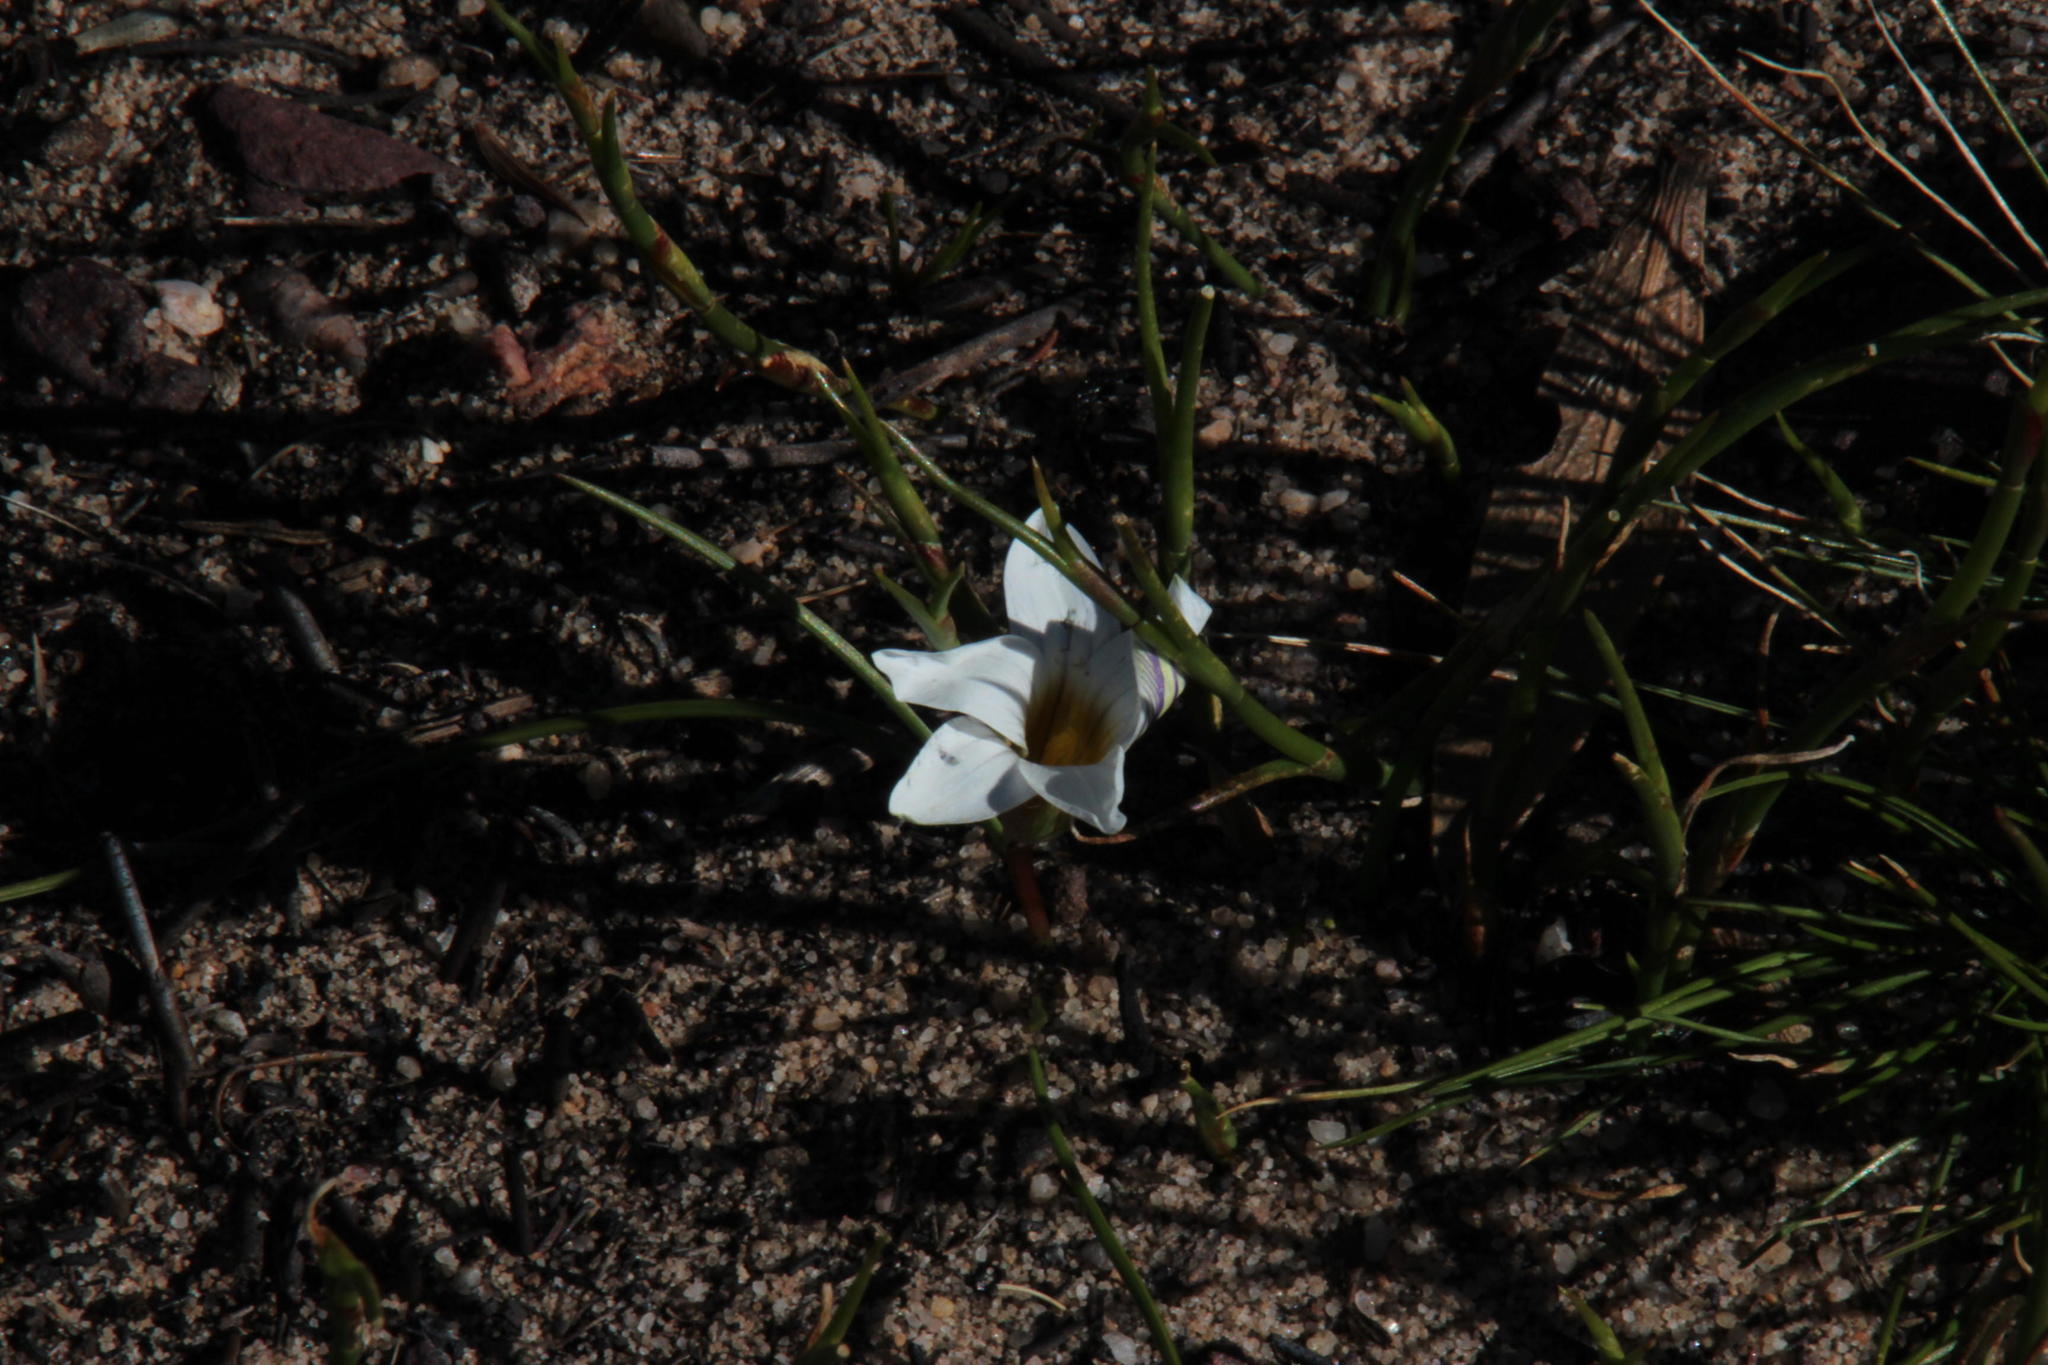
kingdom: Plantae
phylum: Tracheophyta
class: Liliopsida
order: Asparagales
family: Iridaceae
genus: Romulea
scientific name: Romulea flava
